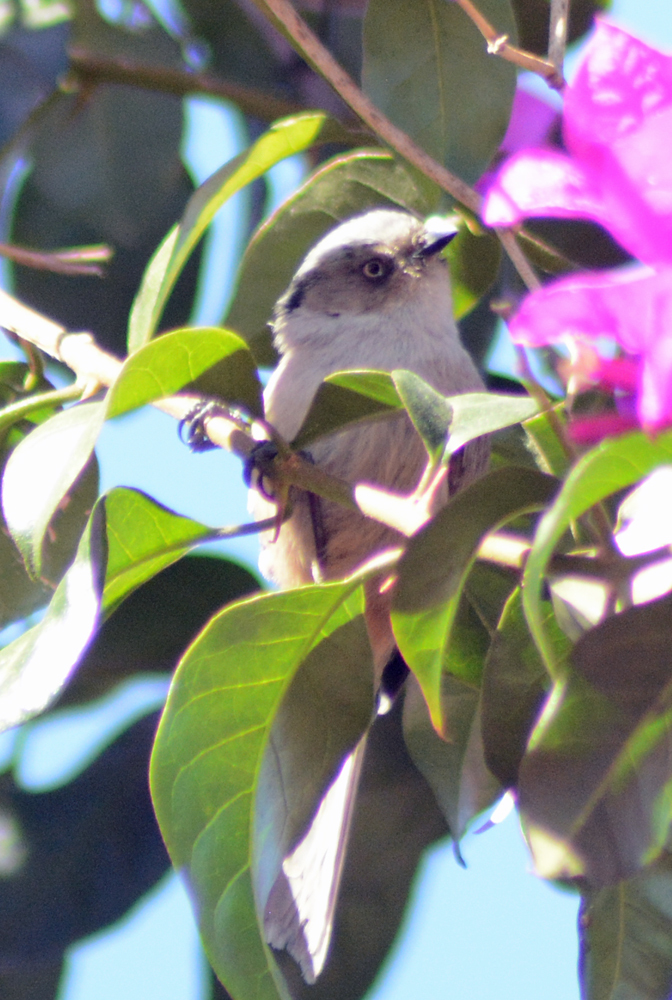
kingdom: Animalia
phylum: Chordata
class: Aves
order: Passeriformes
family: Aegithalidae
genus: Psaltriparus
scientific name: Psaltriparus minimus
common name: American bushtit
